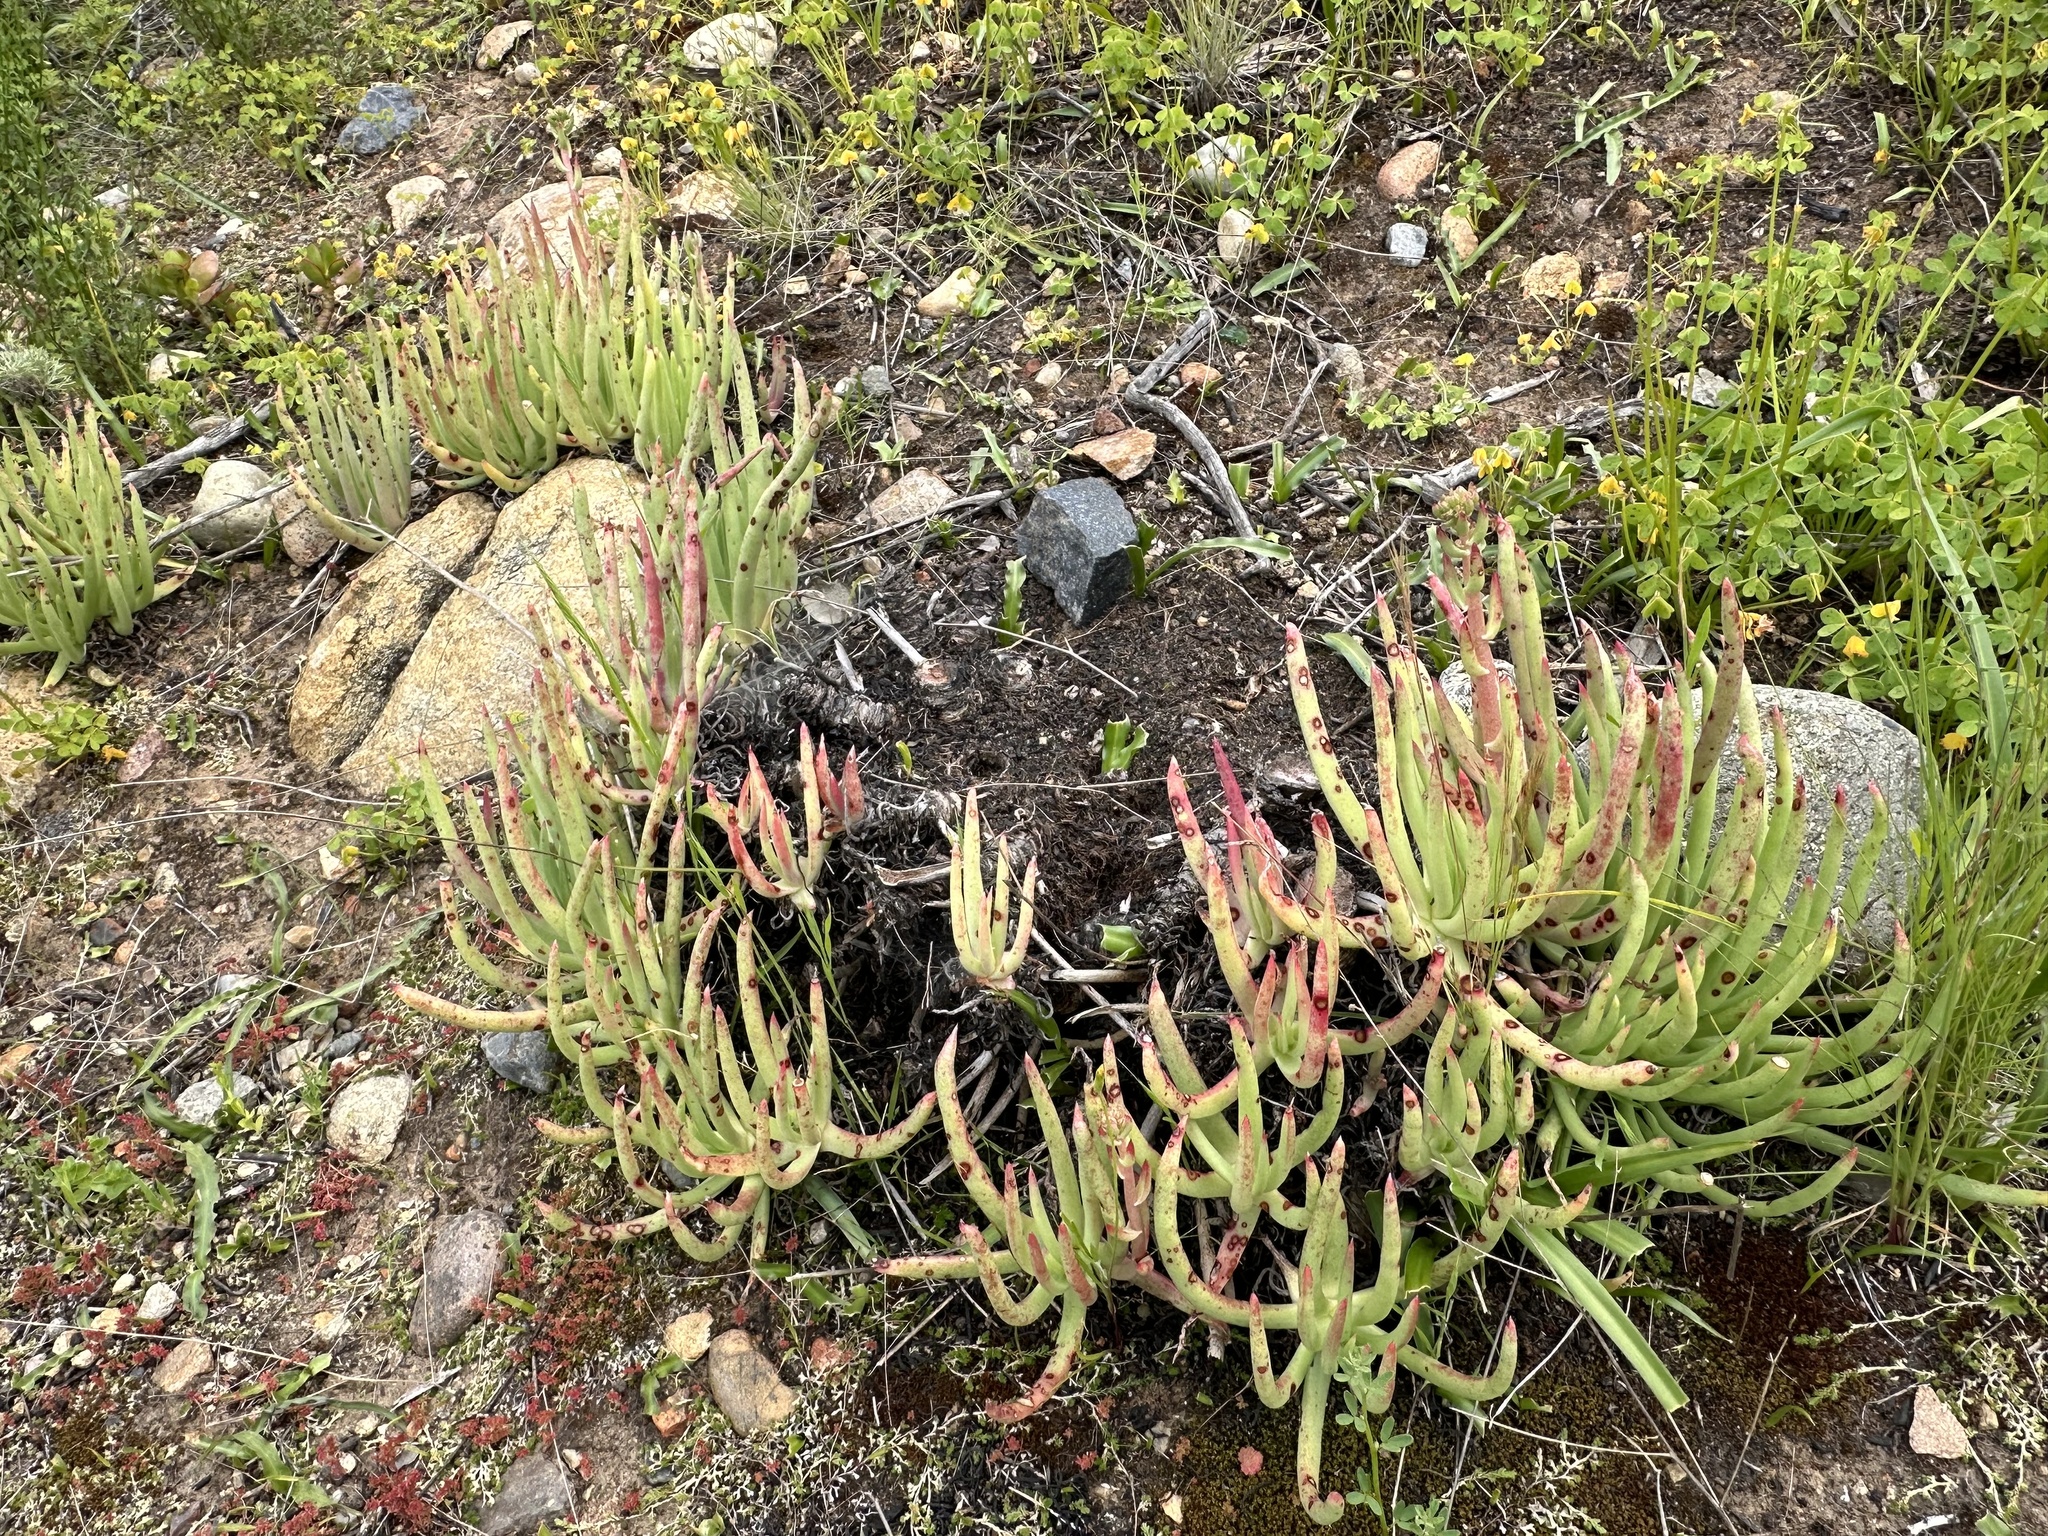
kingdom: Plantae
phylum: Tracheophyta
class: Magnoliopsida
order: Saxifragales
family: Crassulaceae
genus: Dudleya
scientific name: Dudleya edulis
